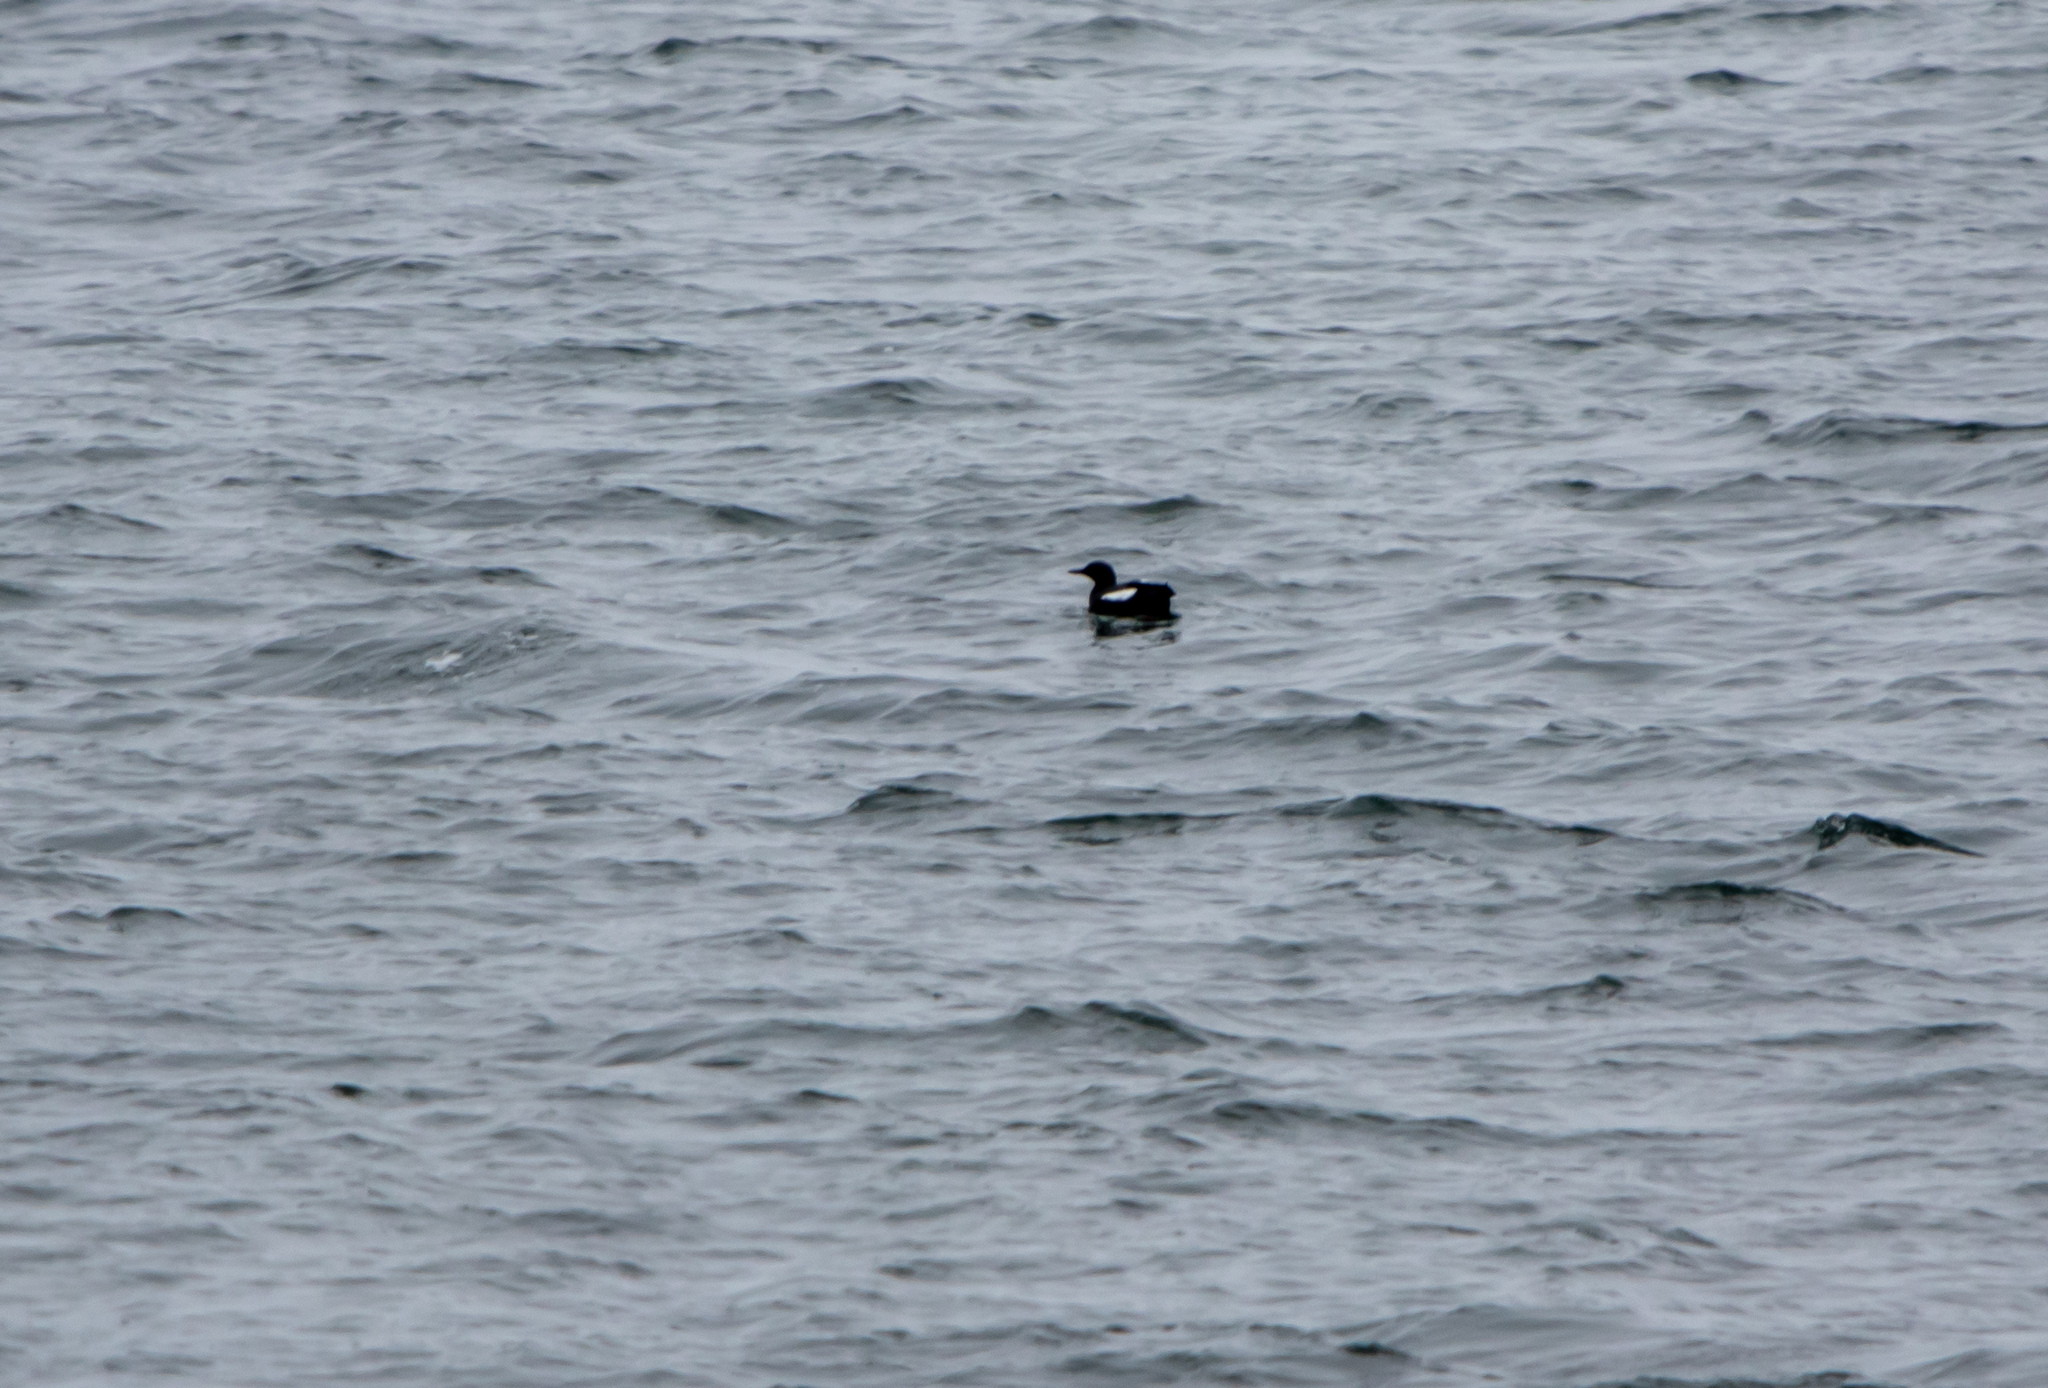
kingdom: Animalia
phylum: Chordata
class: Aves
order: Charadriiformes
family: Alcidae
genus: Cepphus
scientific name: Cepphus columba
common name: Pigeon guillemot
